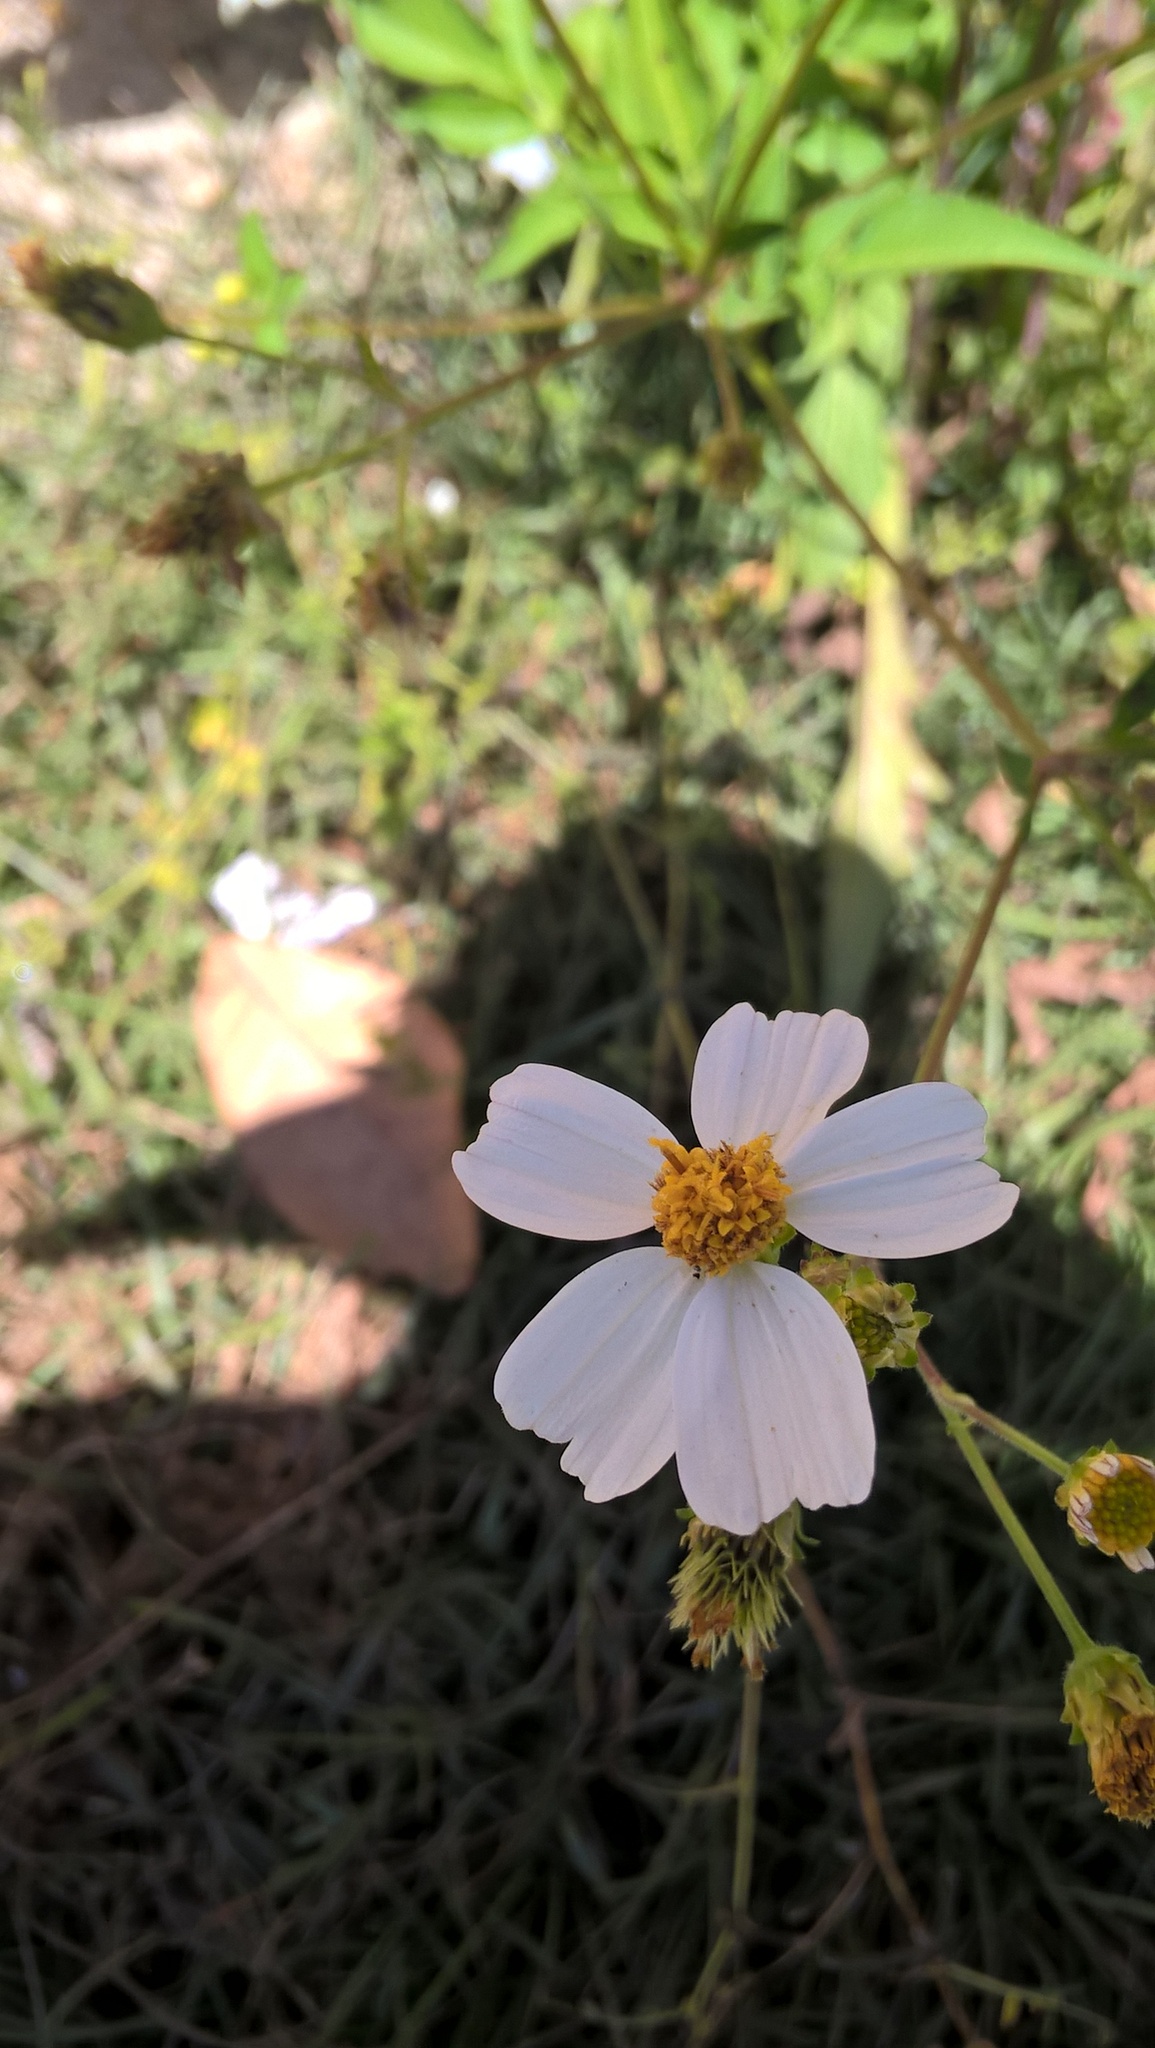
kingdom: Plantae
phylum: Tracheophyta
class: Magnoliopsida
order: Asterales
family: Asteraceae
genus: Bidens
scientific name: Bidens alba
